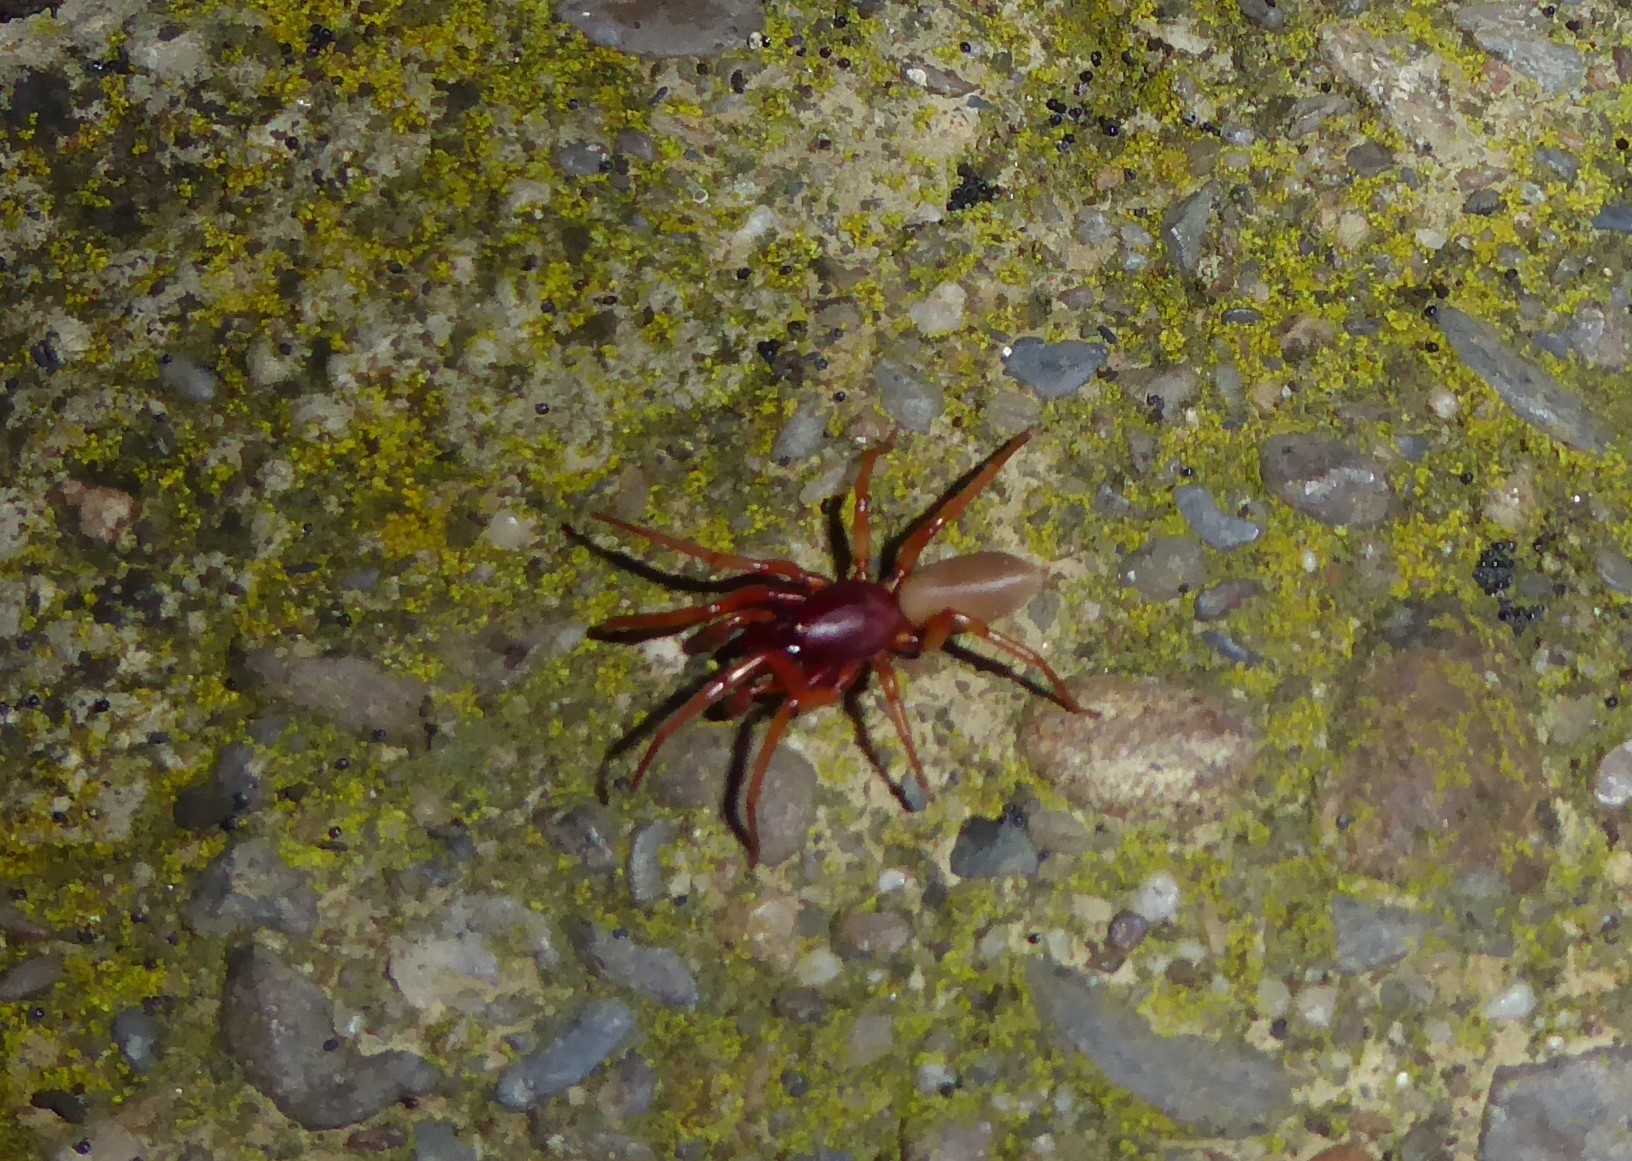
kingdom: Animalia
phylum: Arthropoda
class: Arachnida
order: Araneae
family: Dysderidae
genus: Dysdera
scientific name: Dysdera crocata
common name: Woodlouse spider
